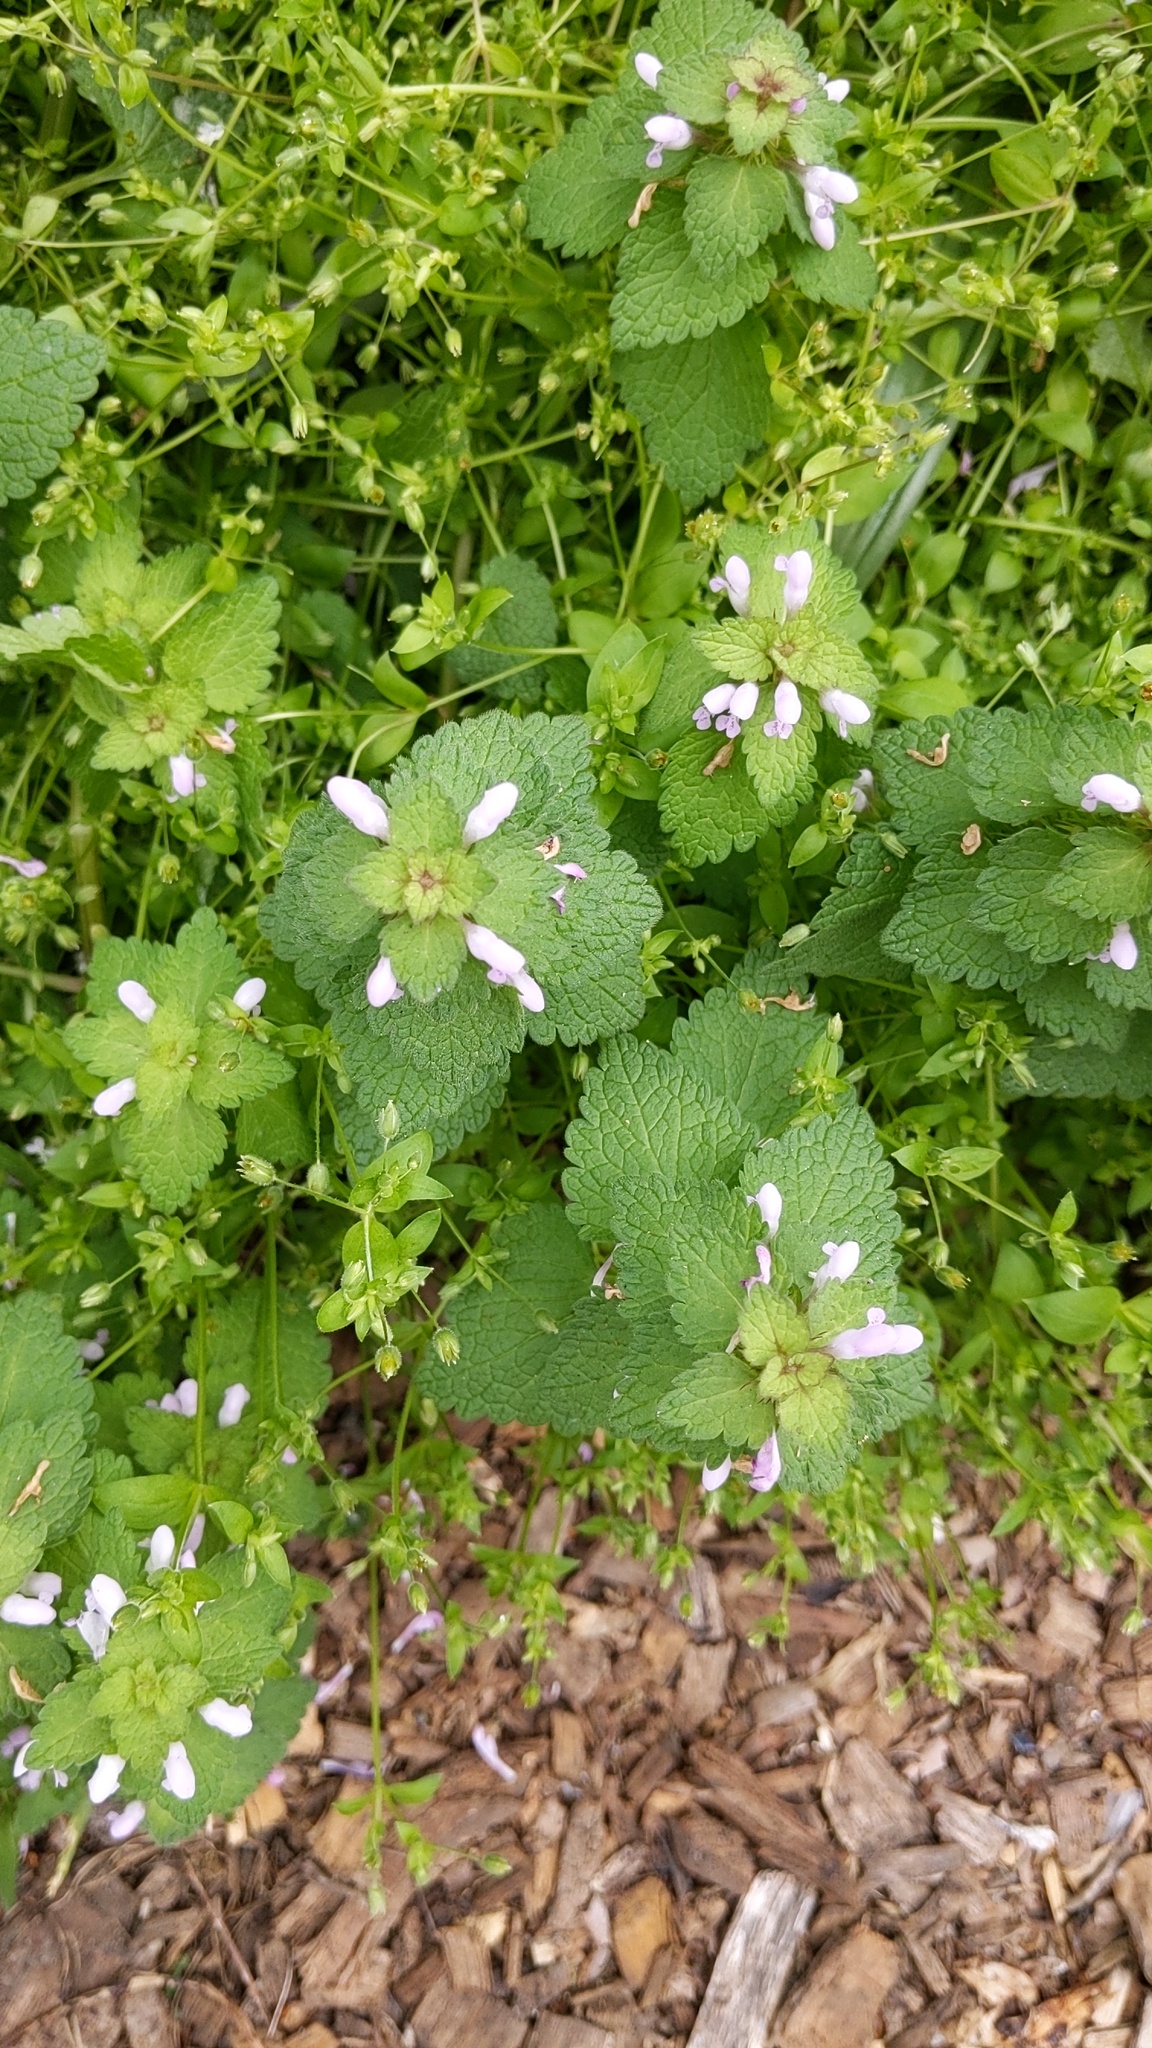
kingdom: Plantae
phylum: Tracheophyta
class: Magnoliopsida
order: Lamiales
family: Lamiaceae
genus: Lamium
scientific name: Lamium purpureum
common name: Red dead-nettle
